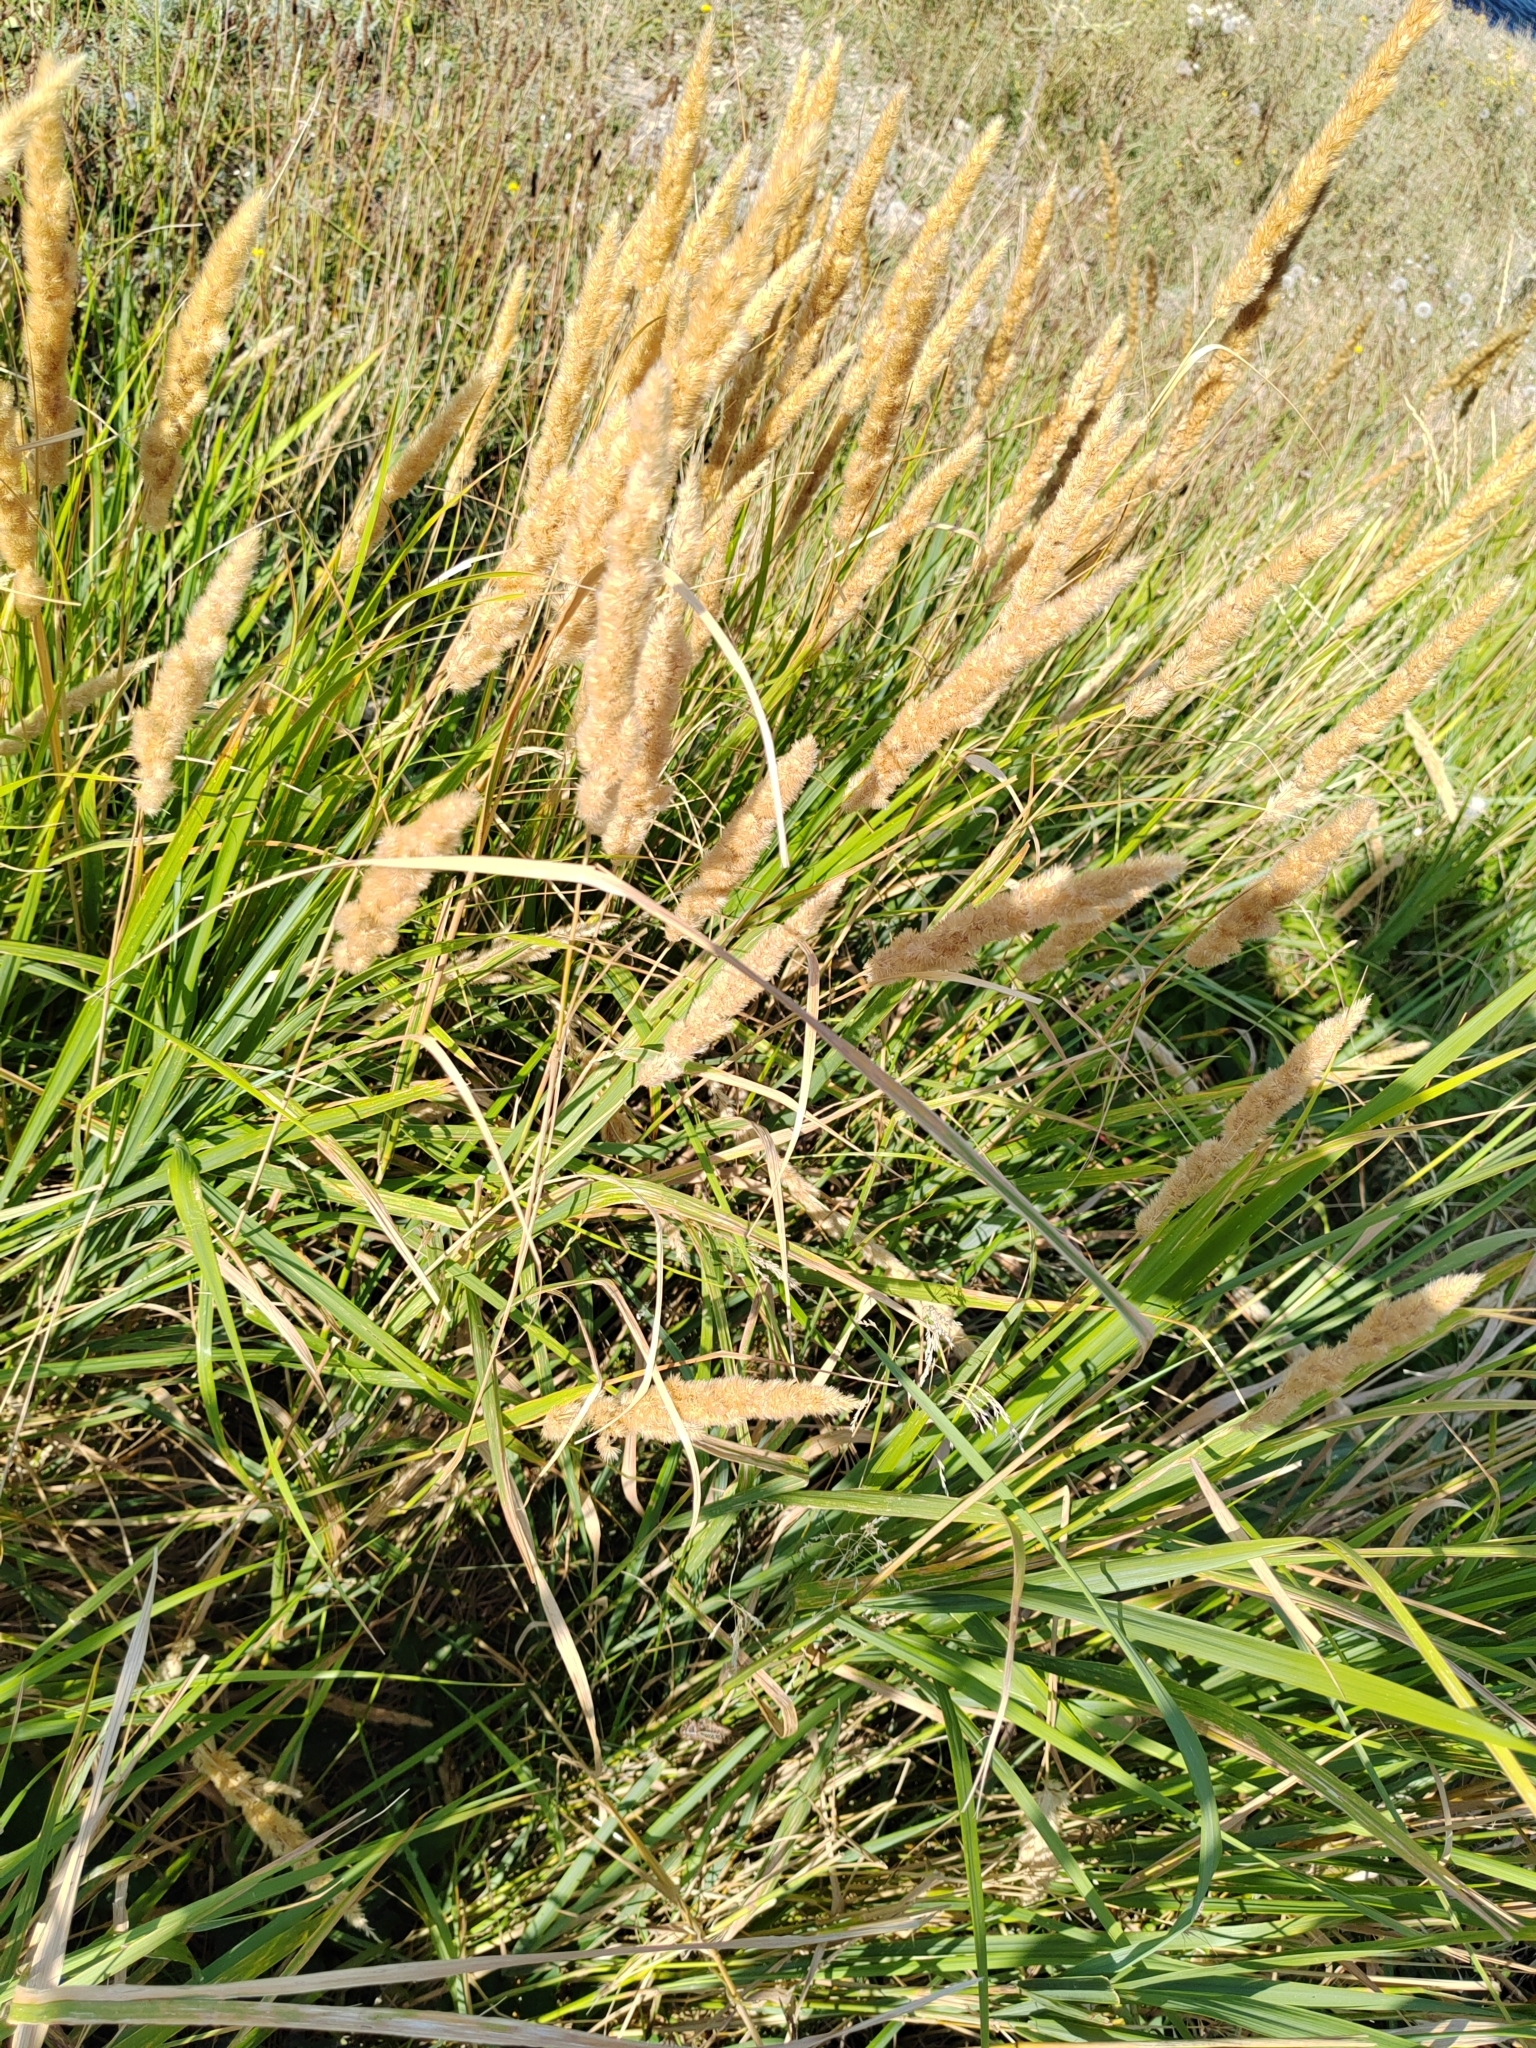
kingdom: Plantae
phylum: Tracheophyta
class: Liliopsida
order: Poales
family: Poaceae
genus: Calamagrostis
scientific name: Calamagrostis epigejos
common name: Wood small-reed
